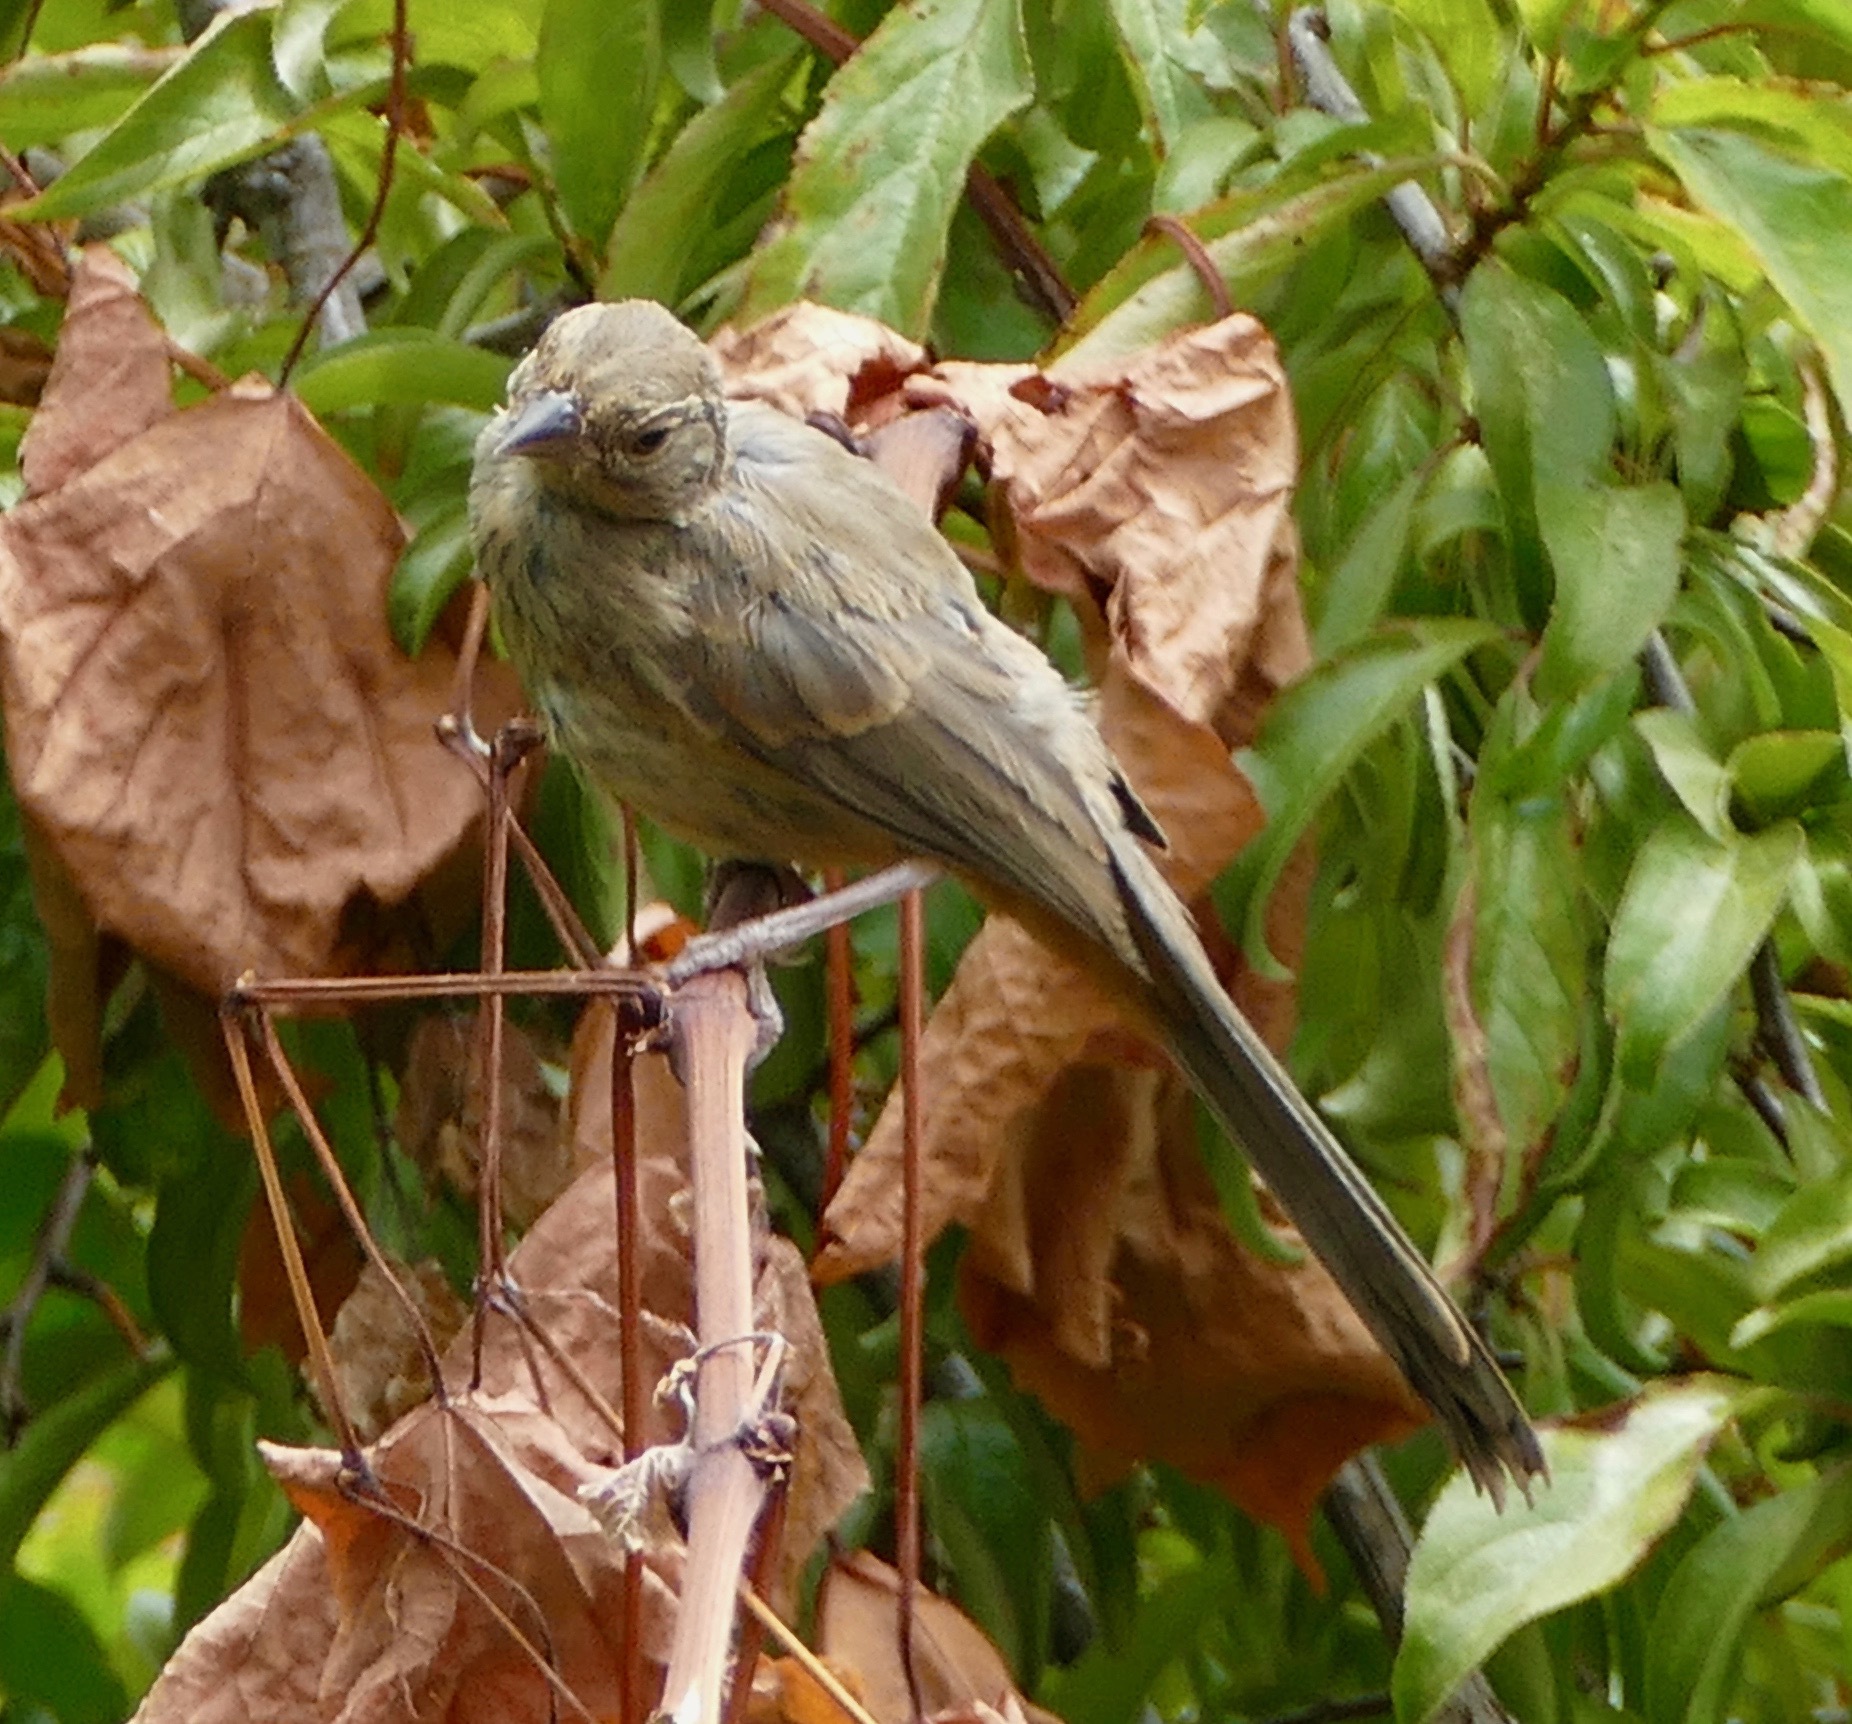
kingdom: Animalia
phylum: Chordata
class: Aves
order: Passeriformes
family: Passerellidae
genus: Melozone
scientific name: Melozone crissalis
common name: California towhee
